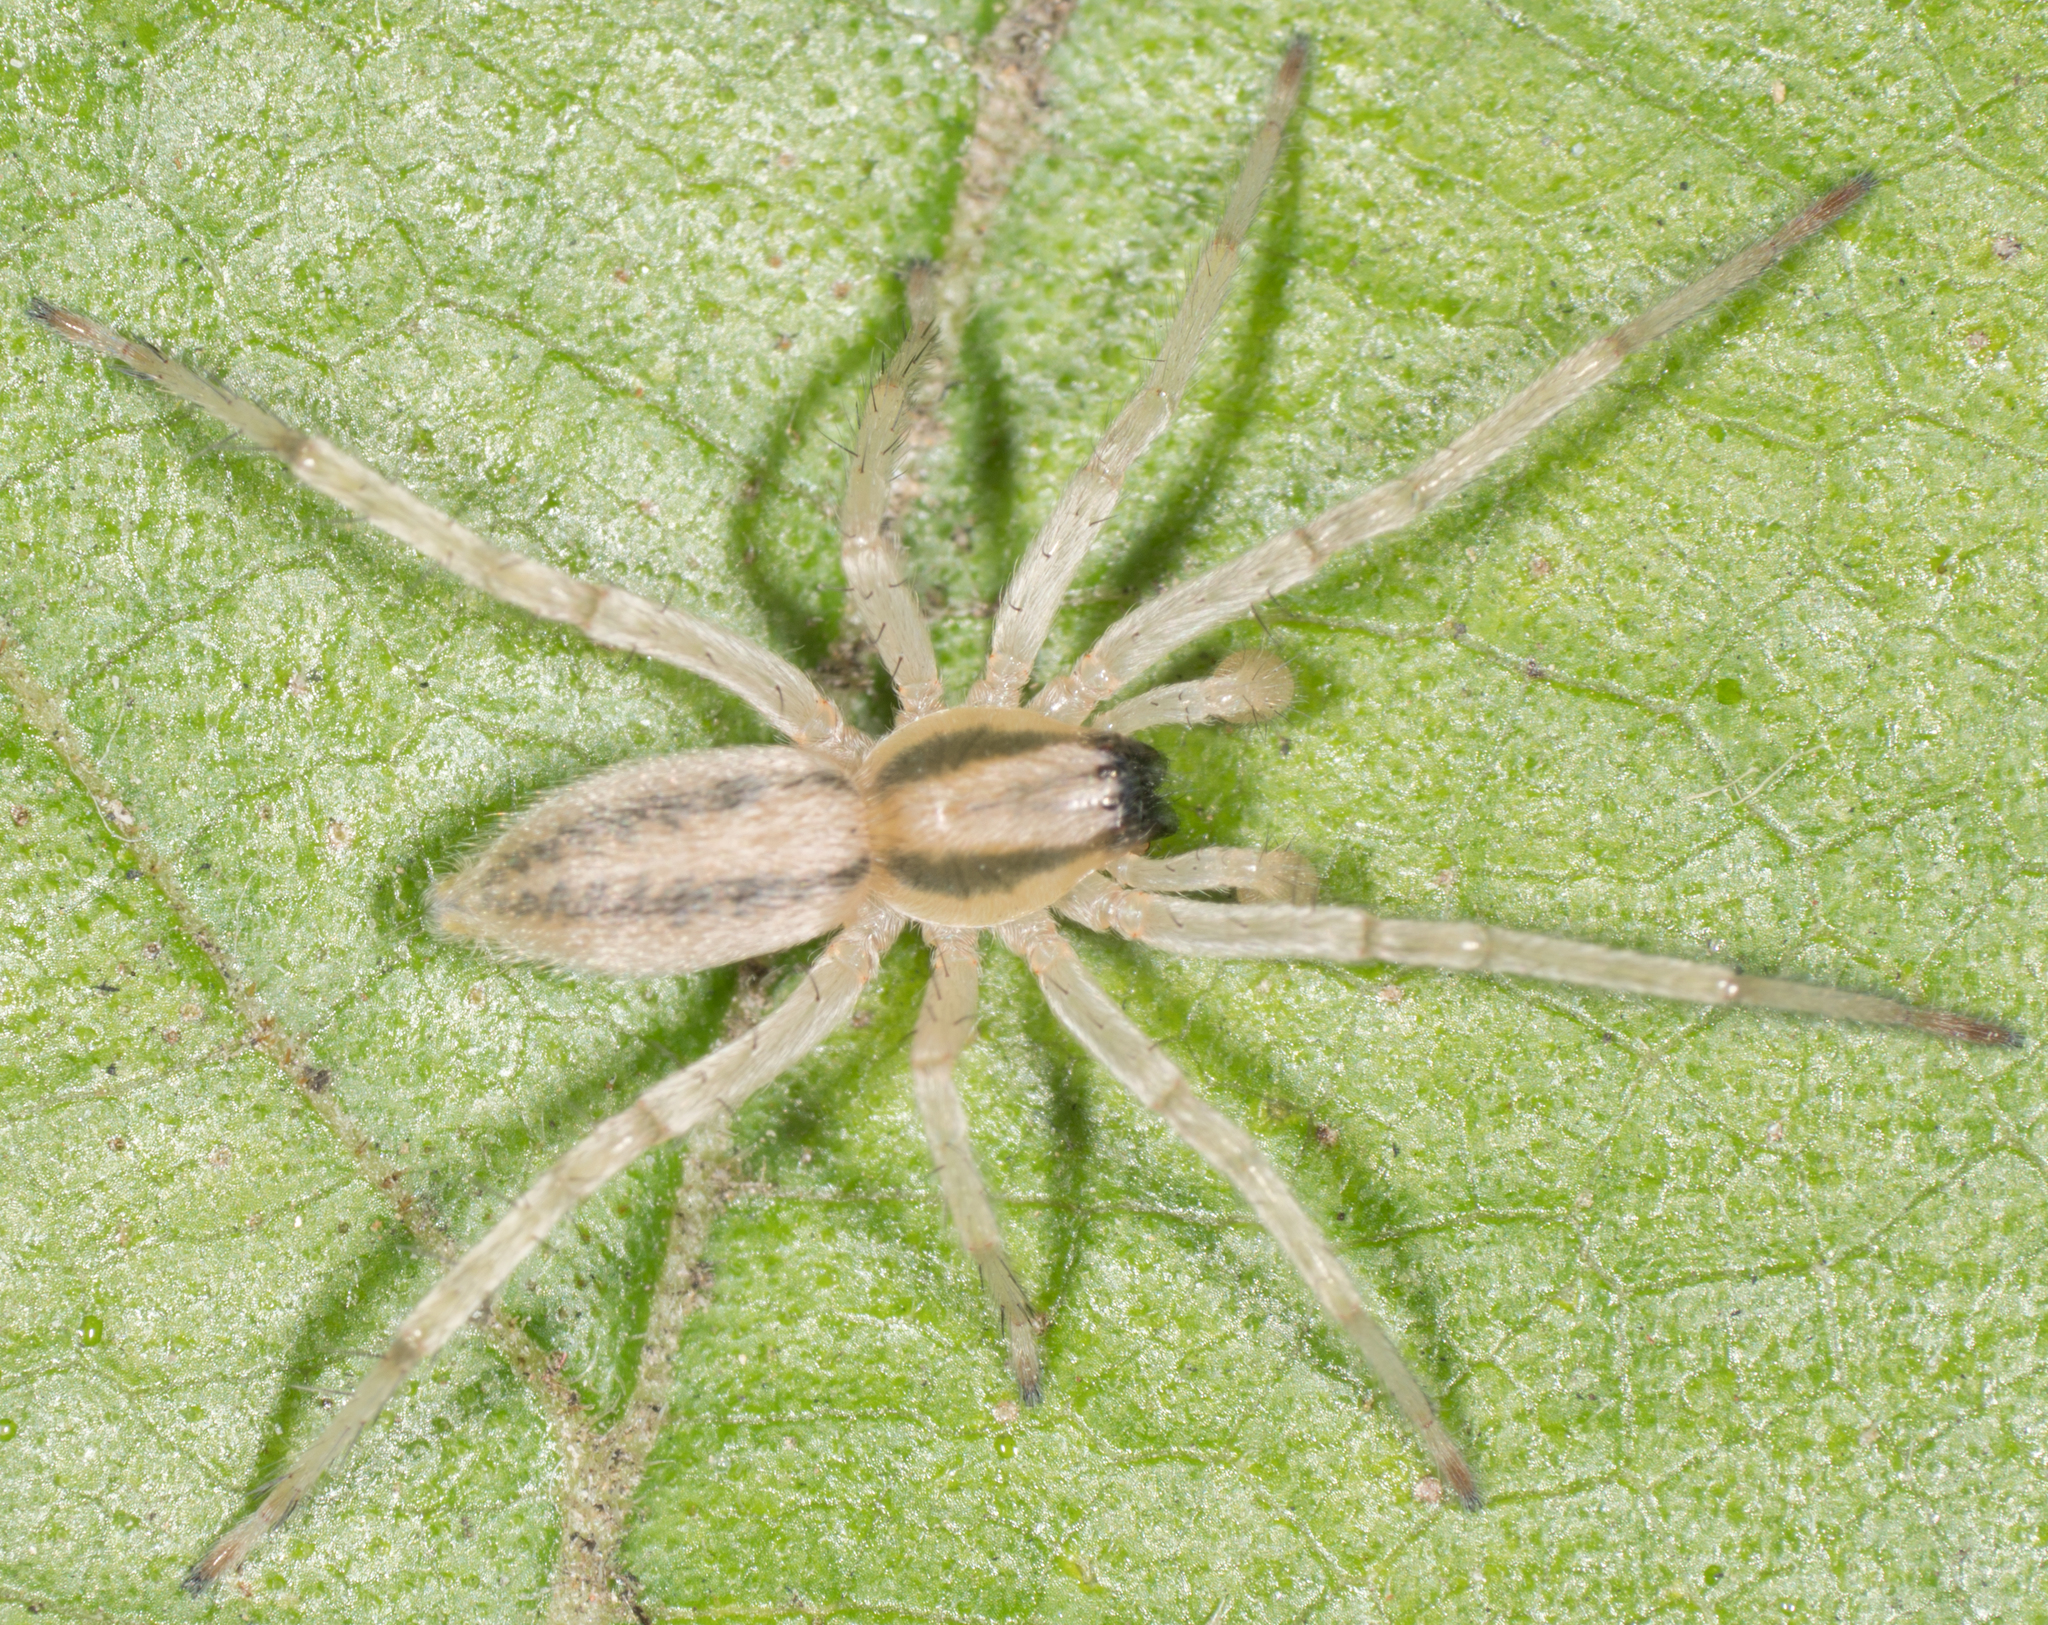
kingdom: Animalia
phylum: Arthropoda
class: Arachnida
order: Araneae
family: Anyphaenidae
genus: Hibana
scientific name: Hibana incursa
